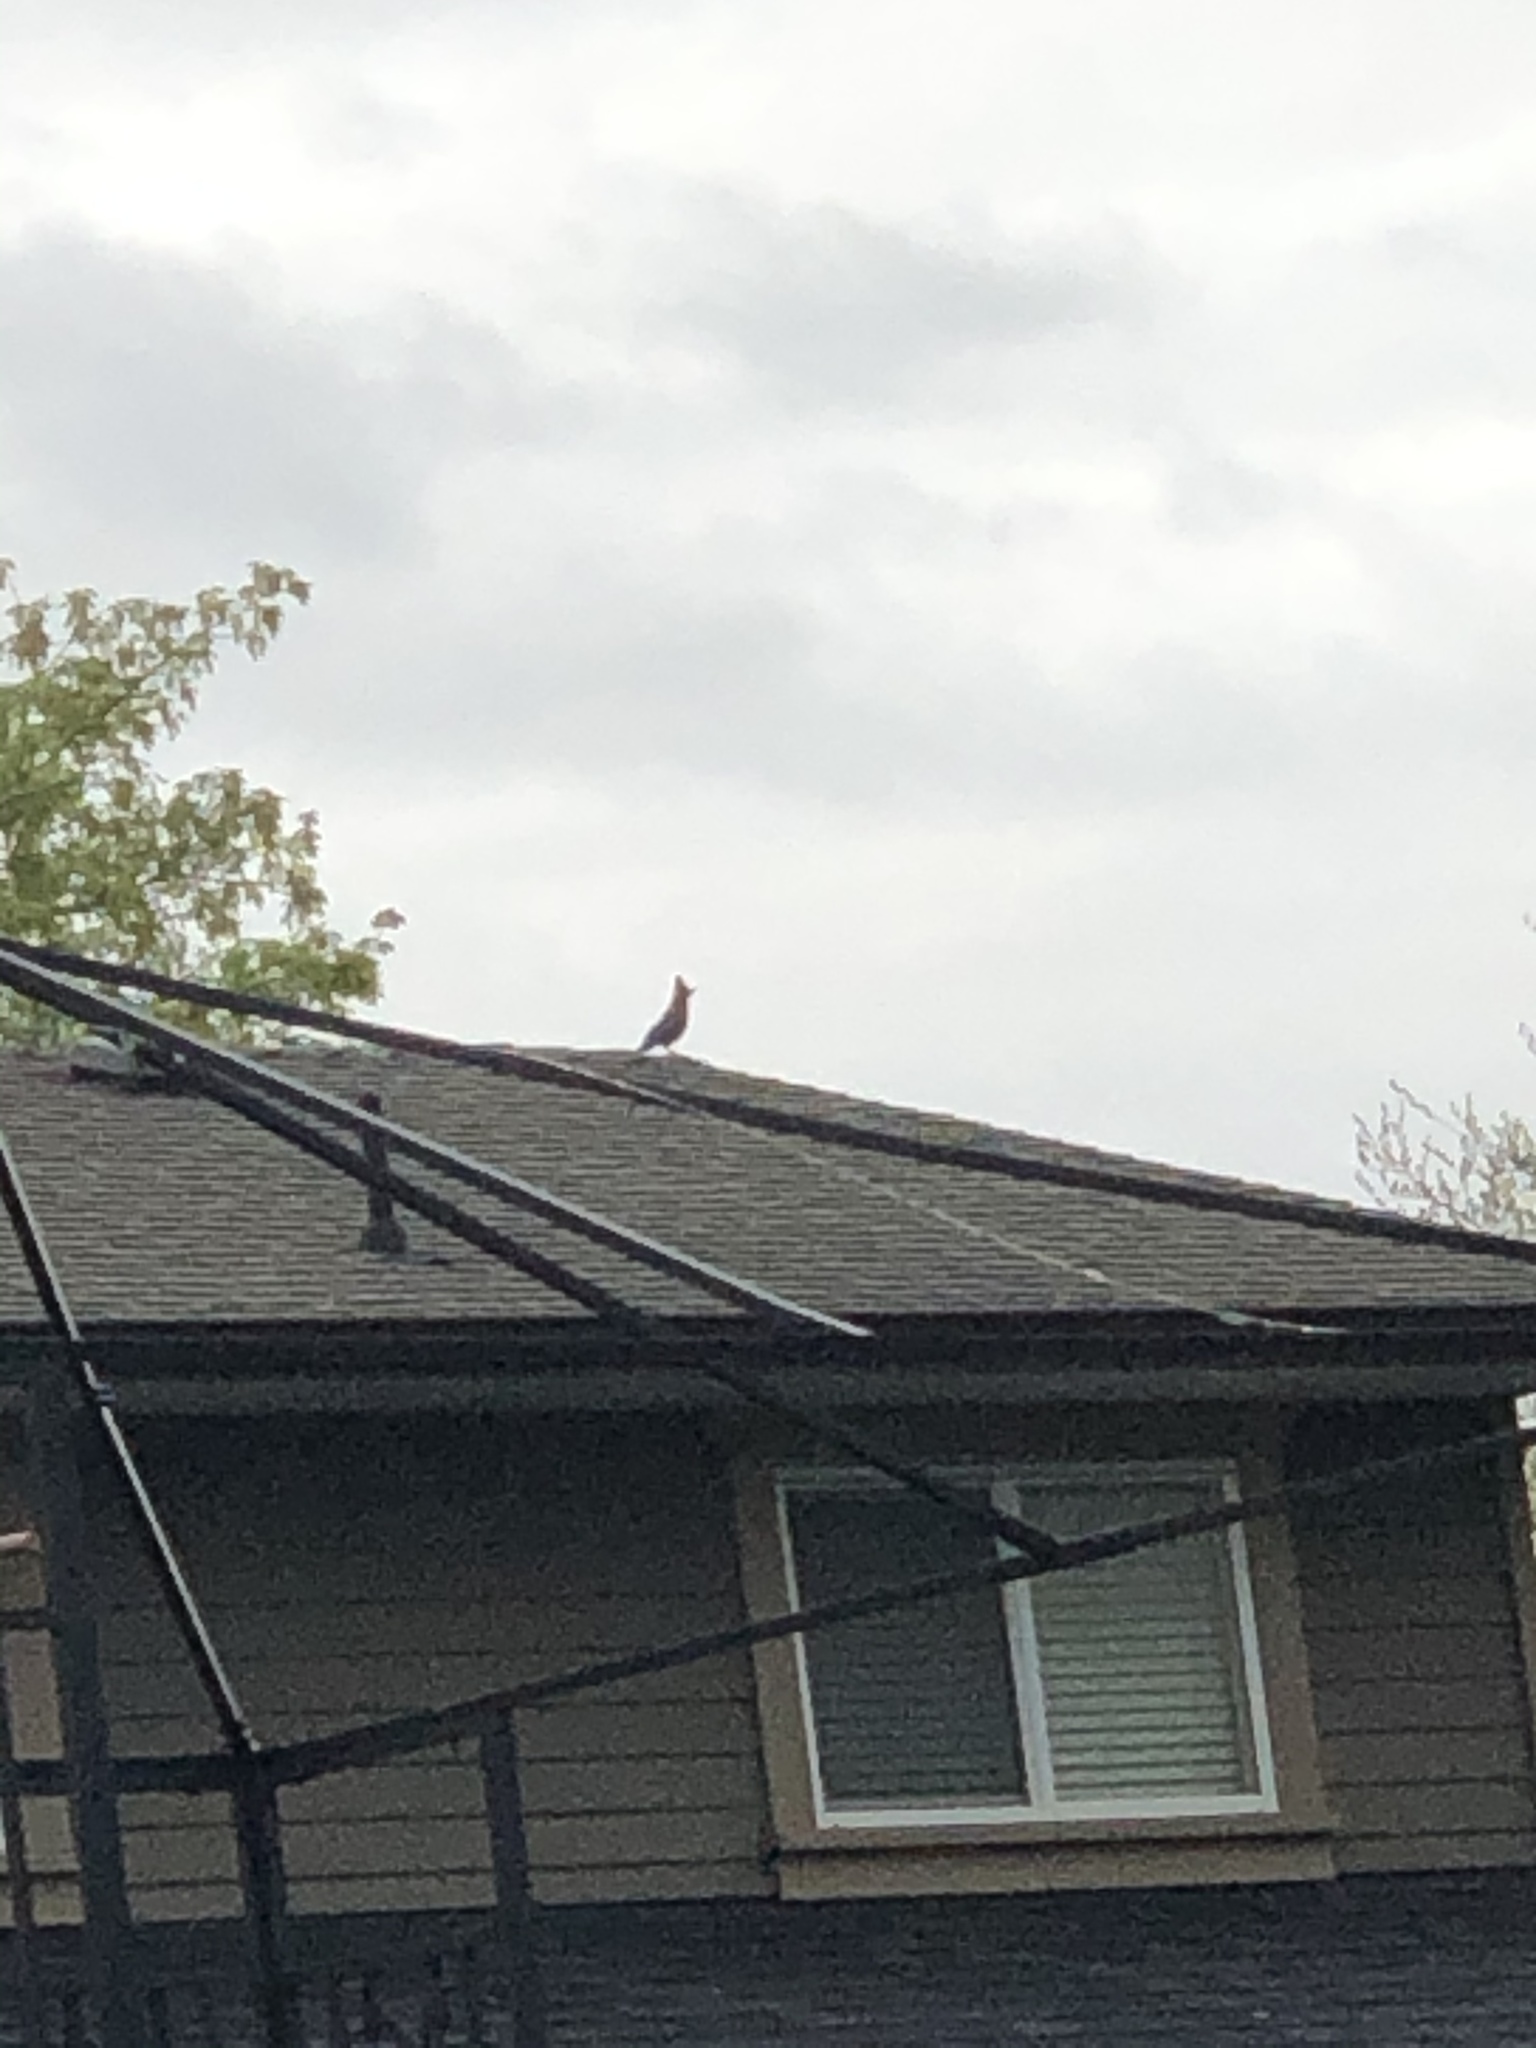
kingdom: Animalia
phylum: Chordata
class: Aves
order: Passeriformes
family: Corvidae
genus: Cyanocitta
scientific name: Cyanocitta stelleri
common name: Steller's jay
